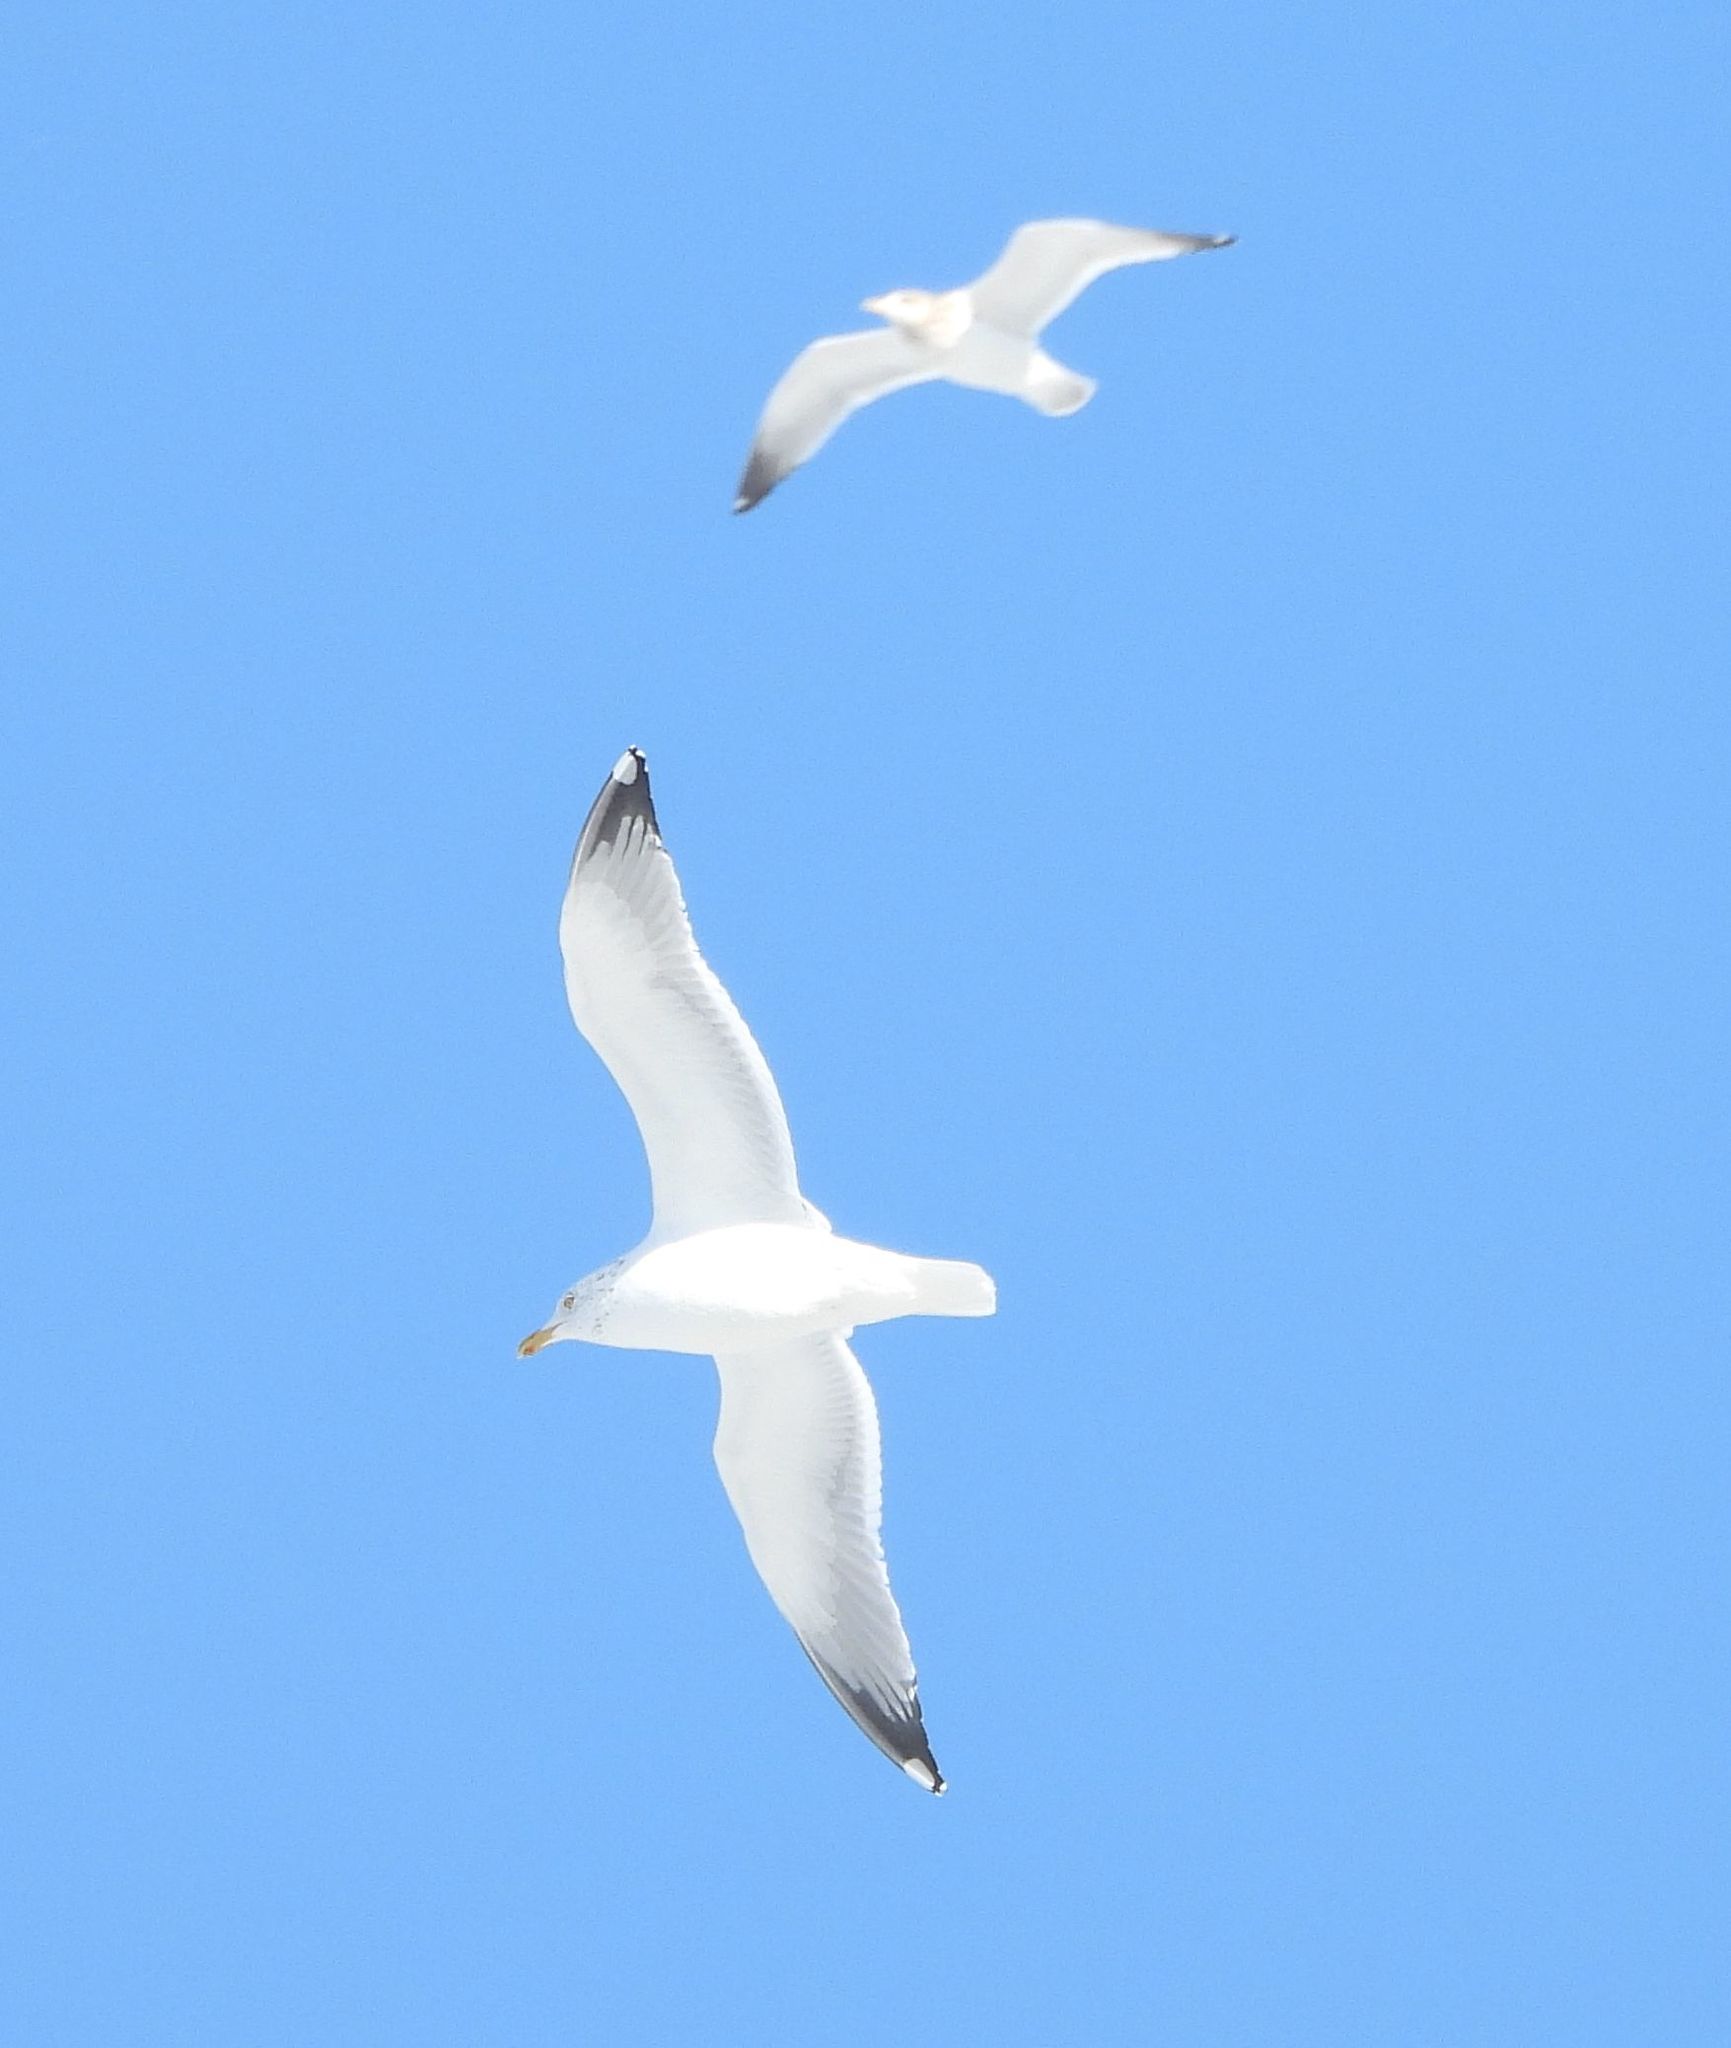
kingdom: Animalia
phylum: Chordata
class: Aves
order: Charadriiformes
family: Laridae
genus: Larus
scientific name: Larus argentatus
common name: Herring gull
